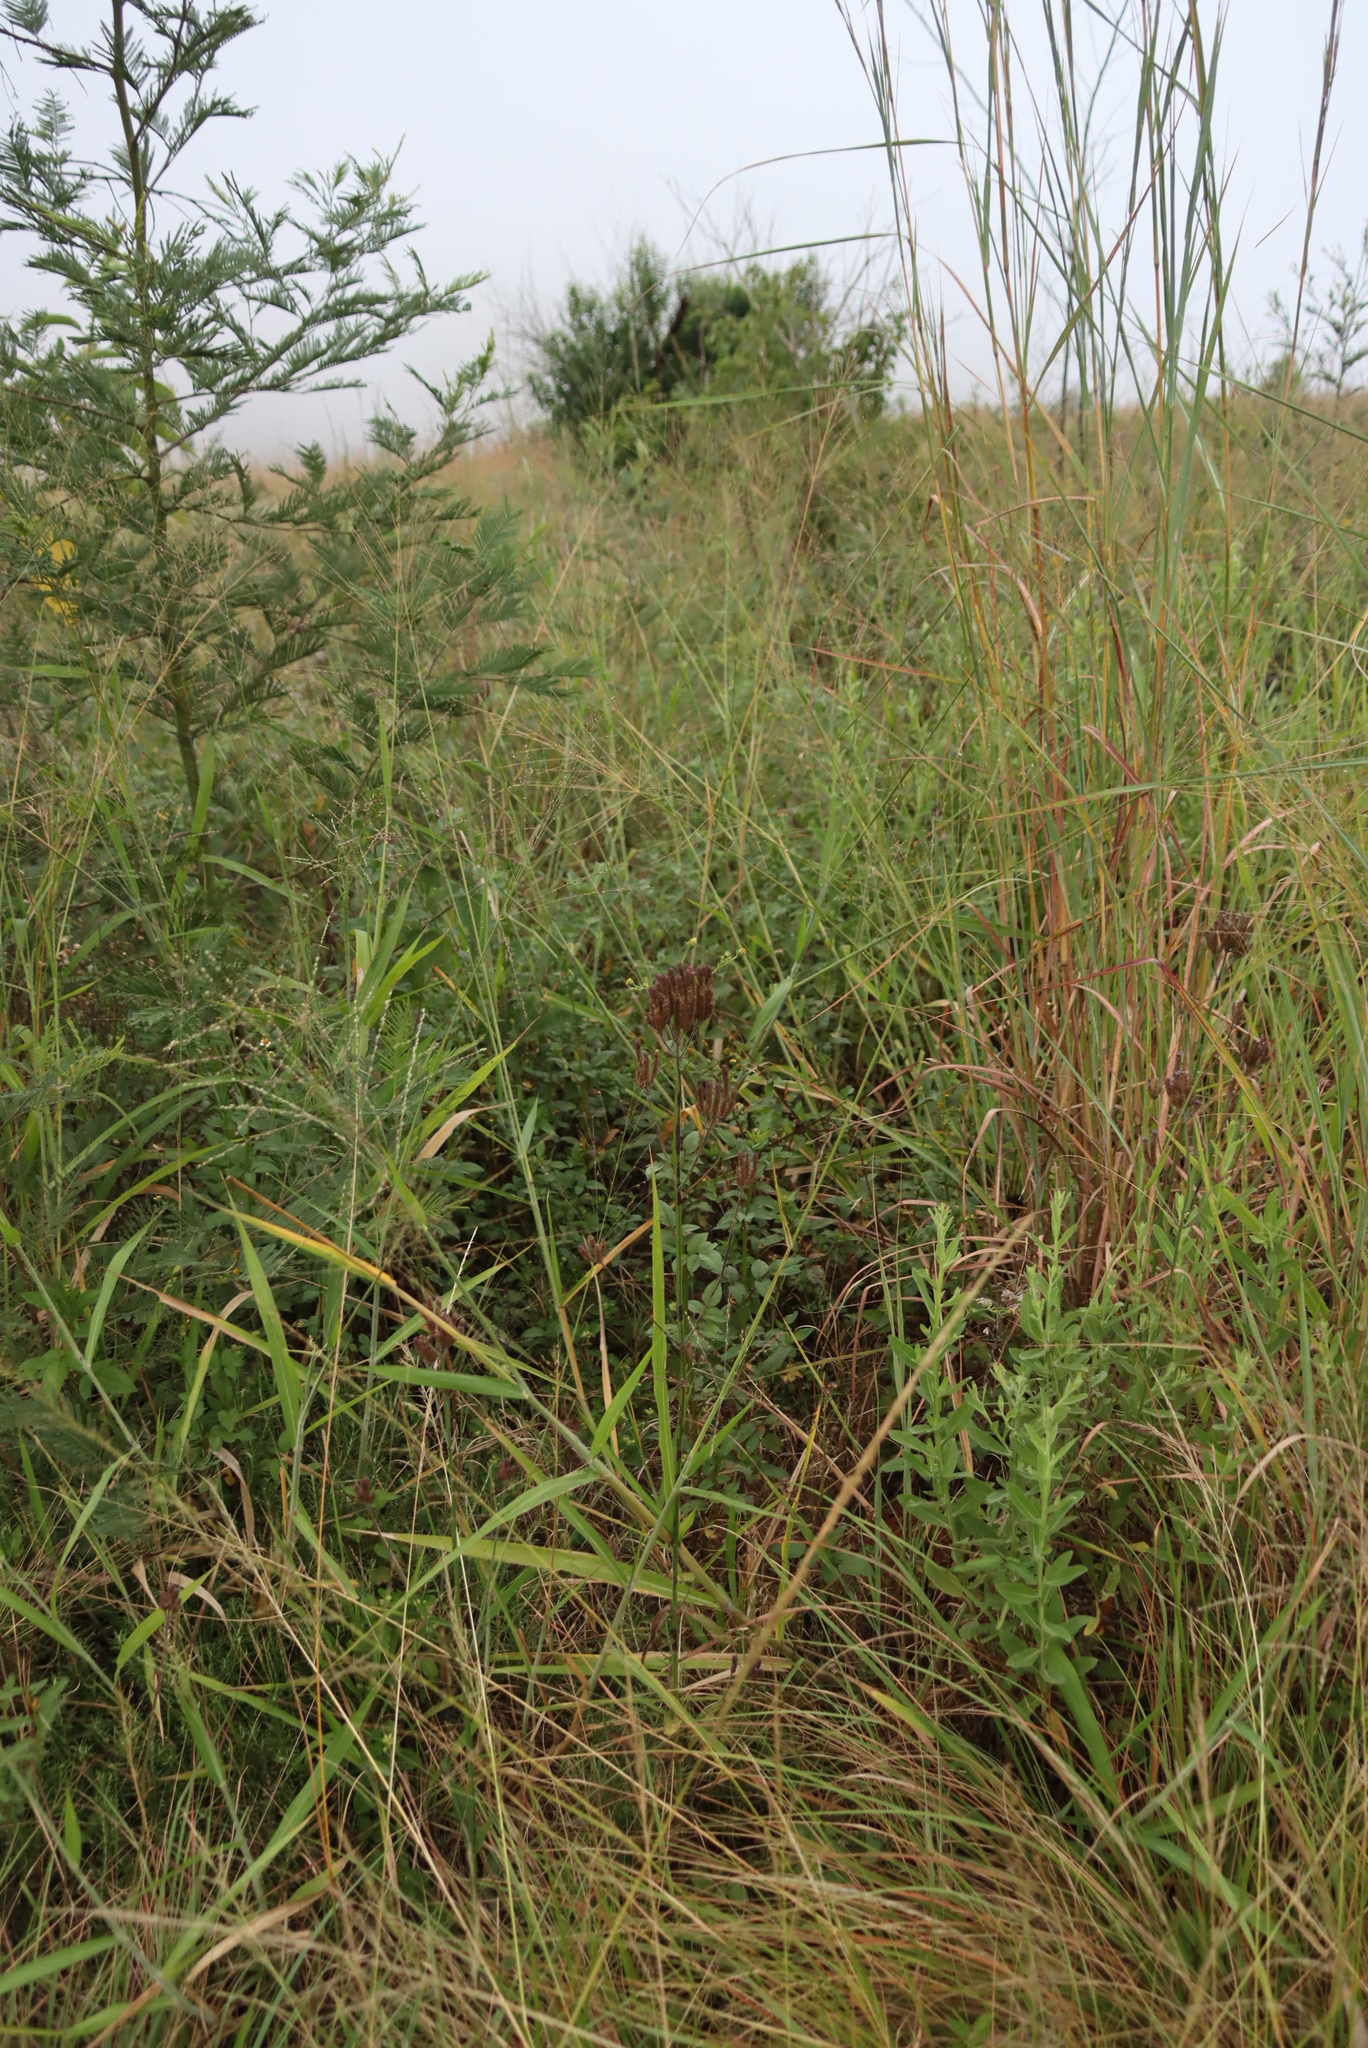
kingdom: Plantae
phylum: Tracheophyta
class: Magnoliopsida
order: Fabales
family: Fabaceae
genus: Acacia
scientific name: Acacia mearnsii
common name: Black wattle
